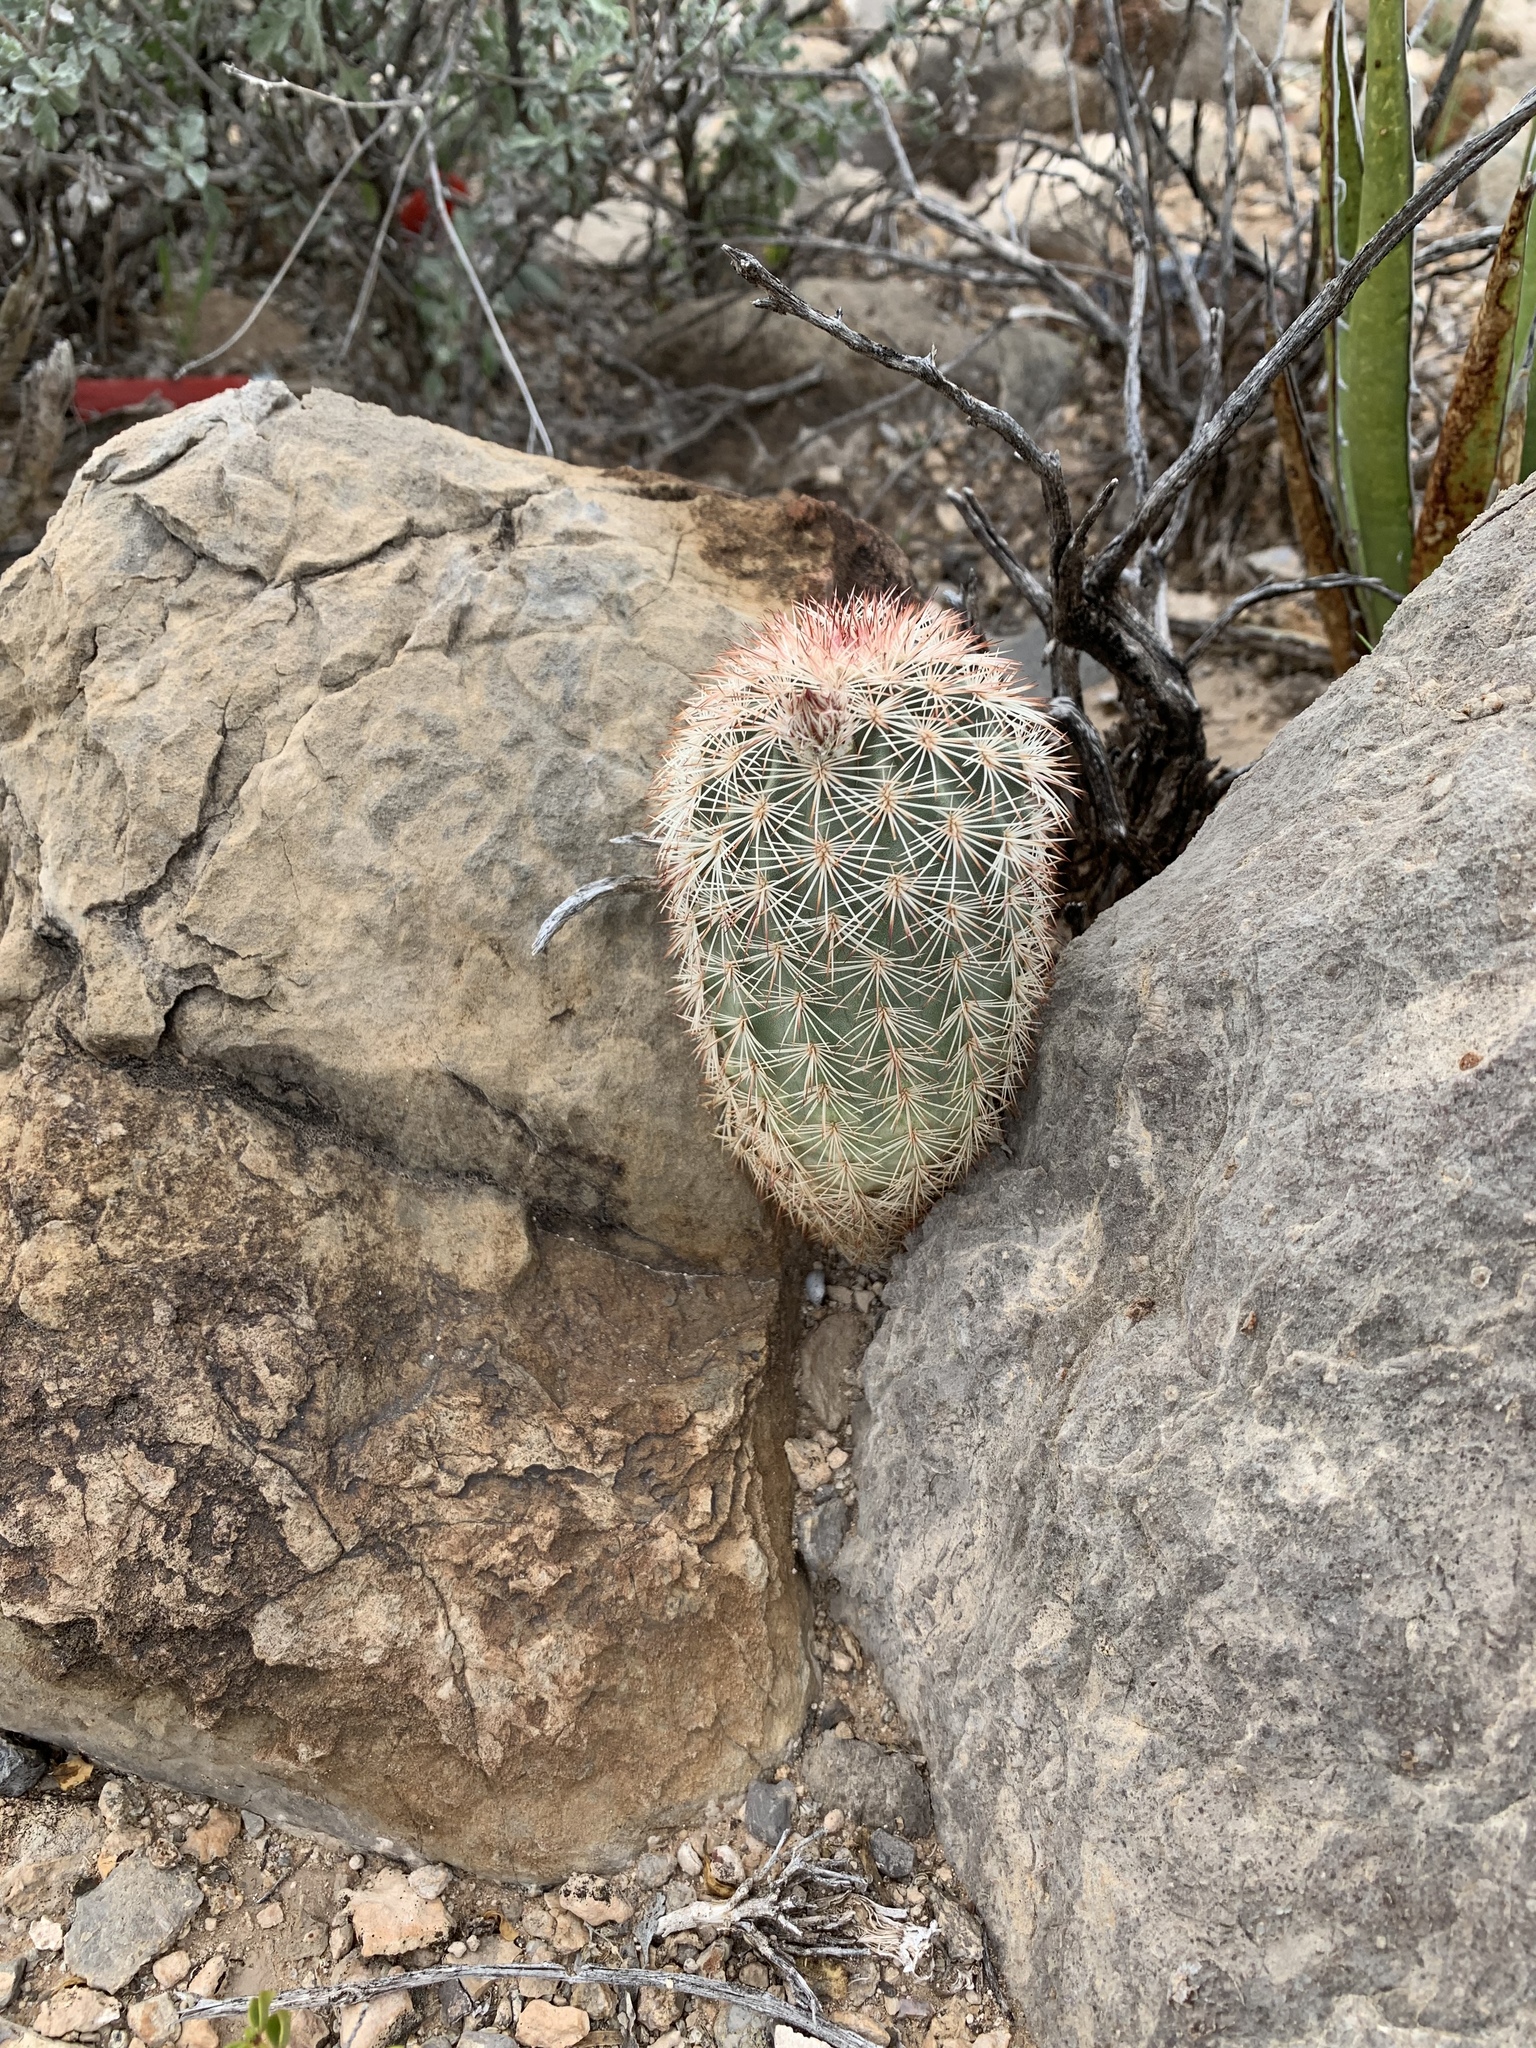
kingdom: Plantae
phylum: Tracheophyta
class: Magnoliopsida
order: Caryophyllales
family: Cactaceae
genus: Echinocereus
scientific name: Echinocereus dasyacanthus
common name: Spiny hedgehog cactus
